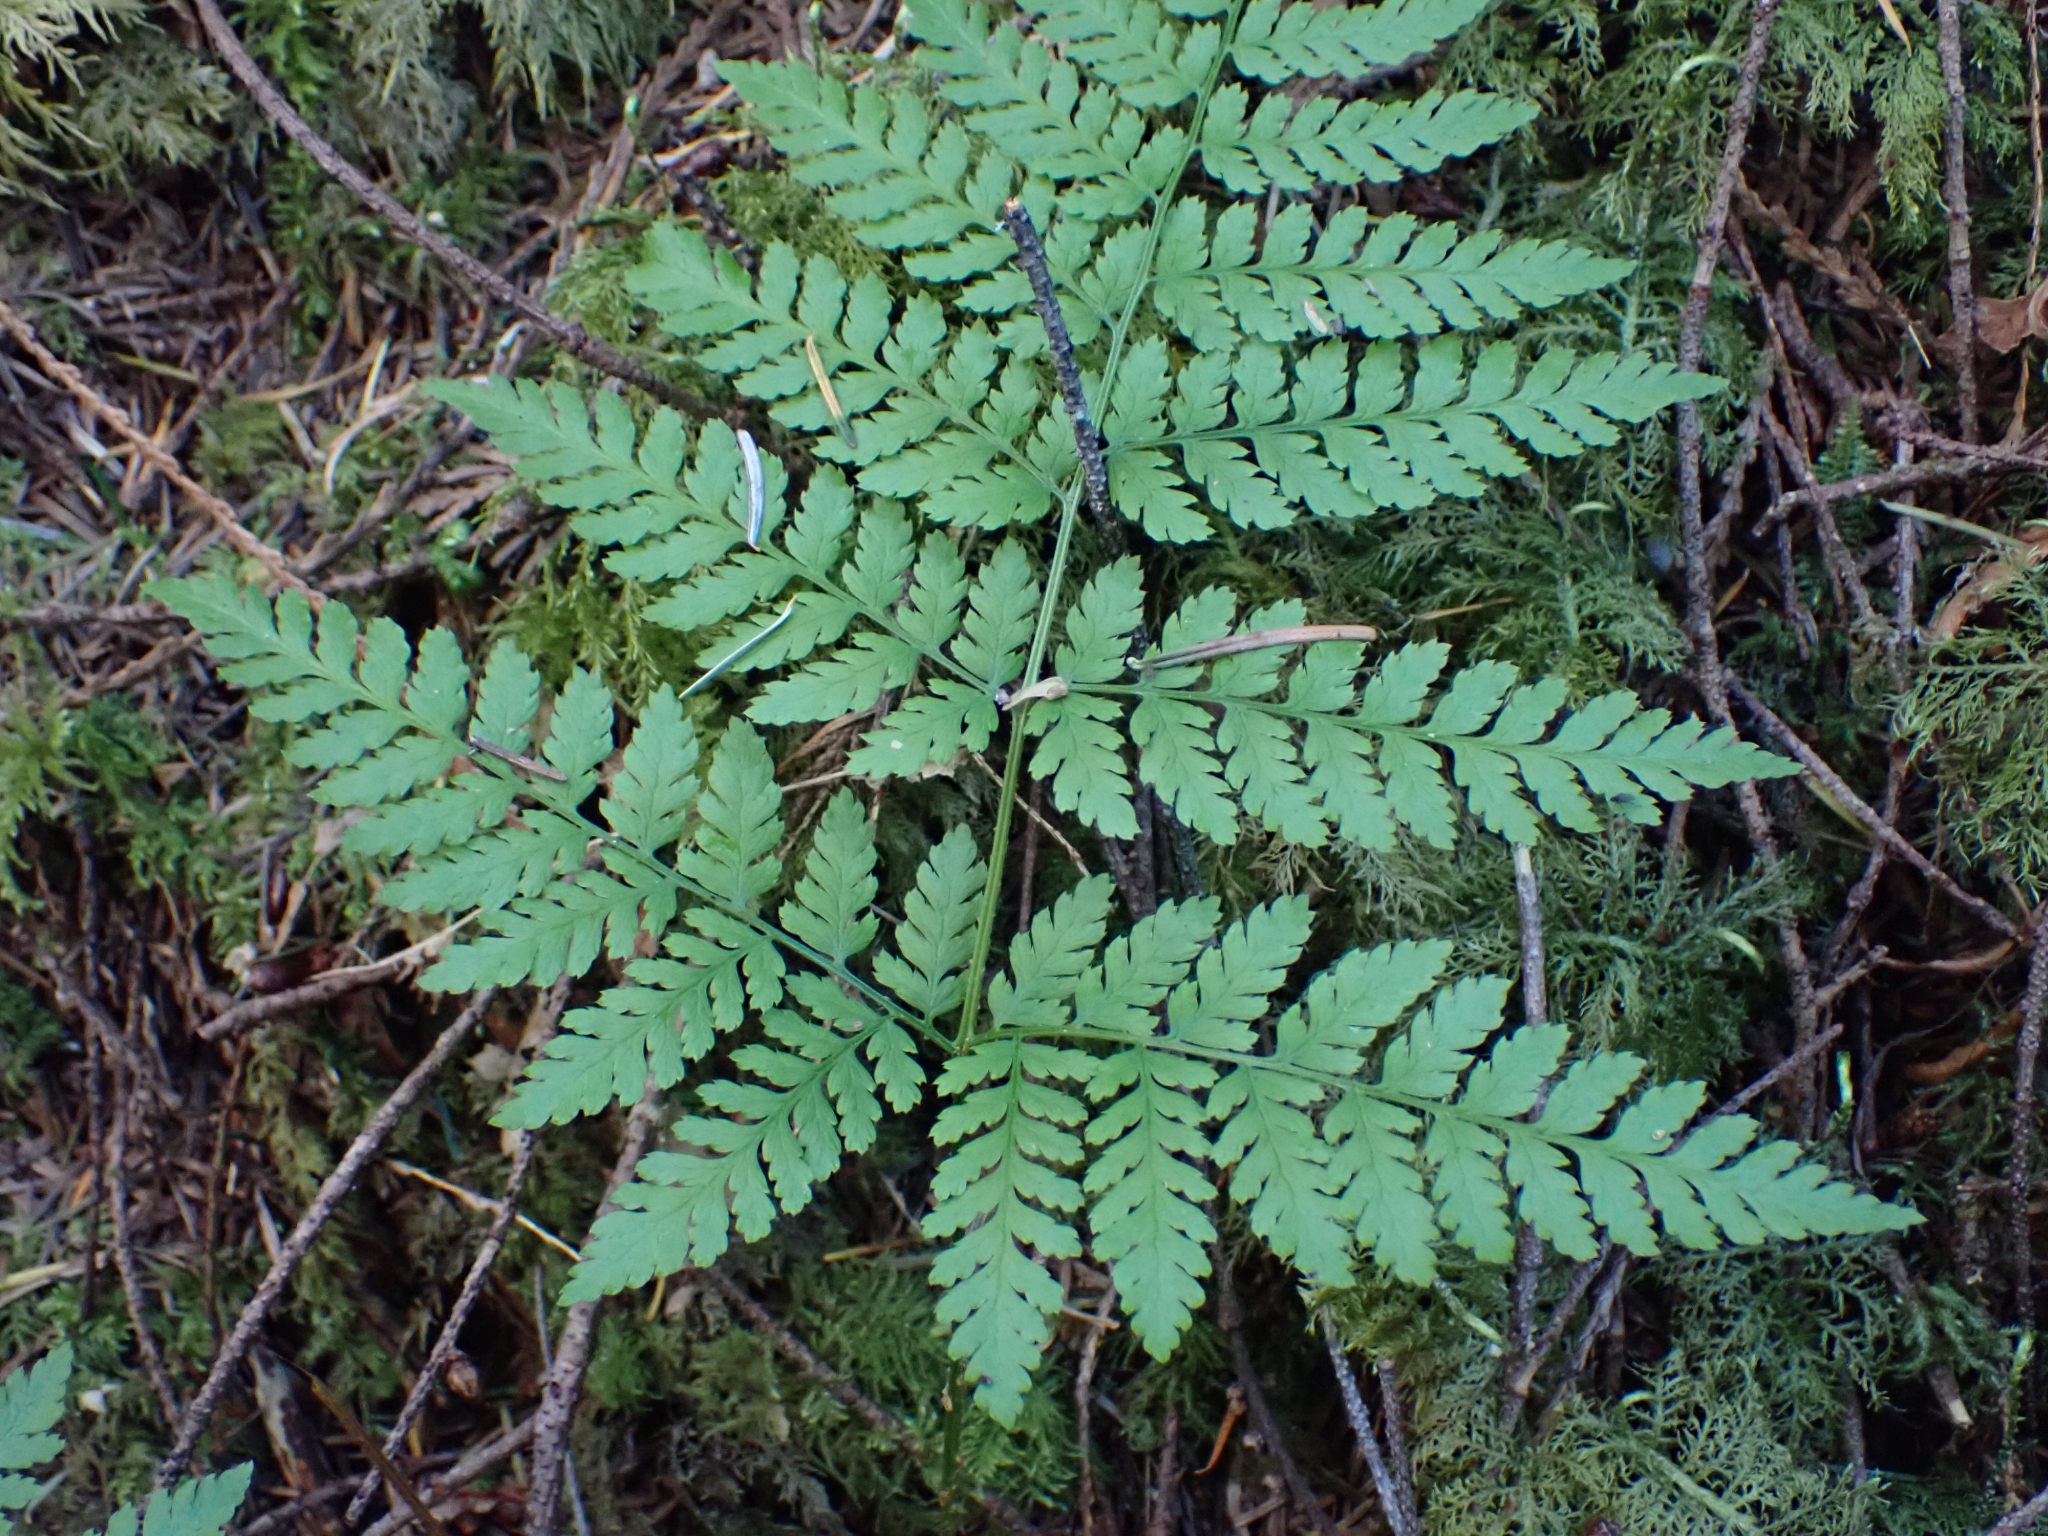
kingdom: Plantae
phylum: Tracheophyta
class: Polypodiopsida
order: Polypodiales
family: Dryopteridaceae
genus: Dryopteris
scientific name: Dryopteris expansa
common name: Northern buckler fern
